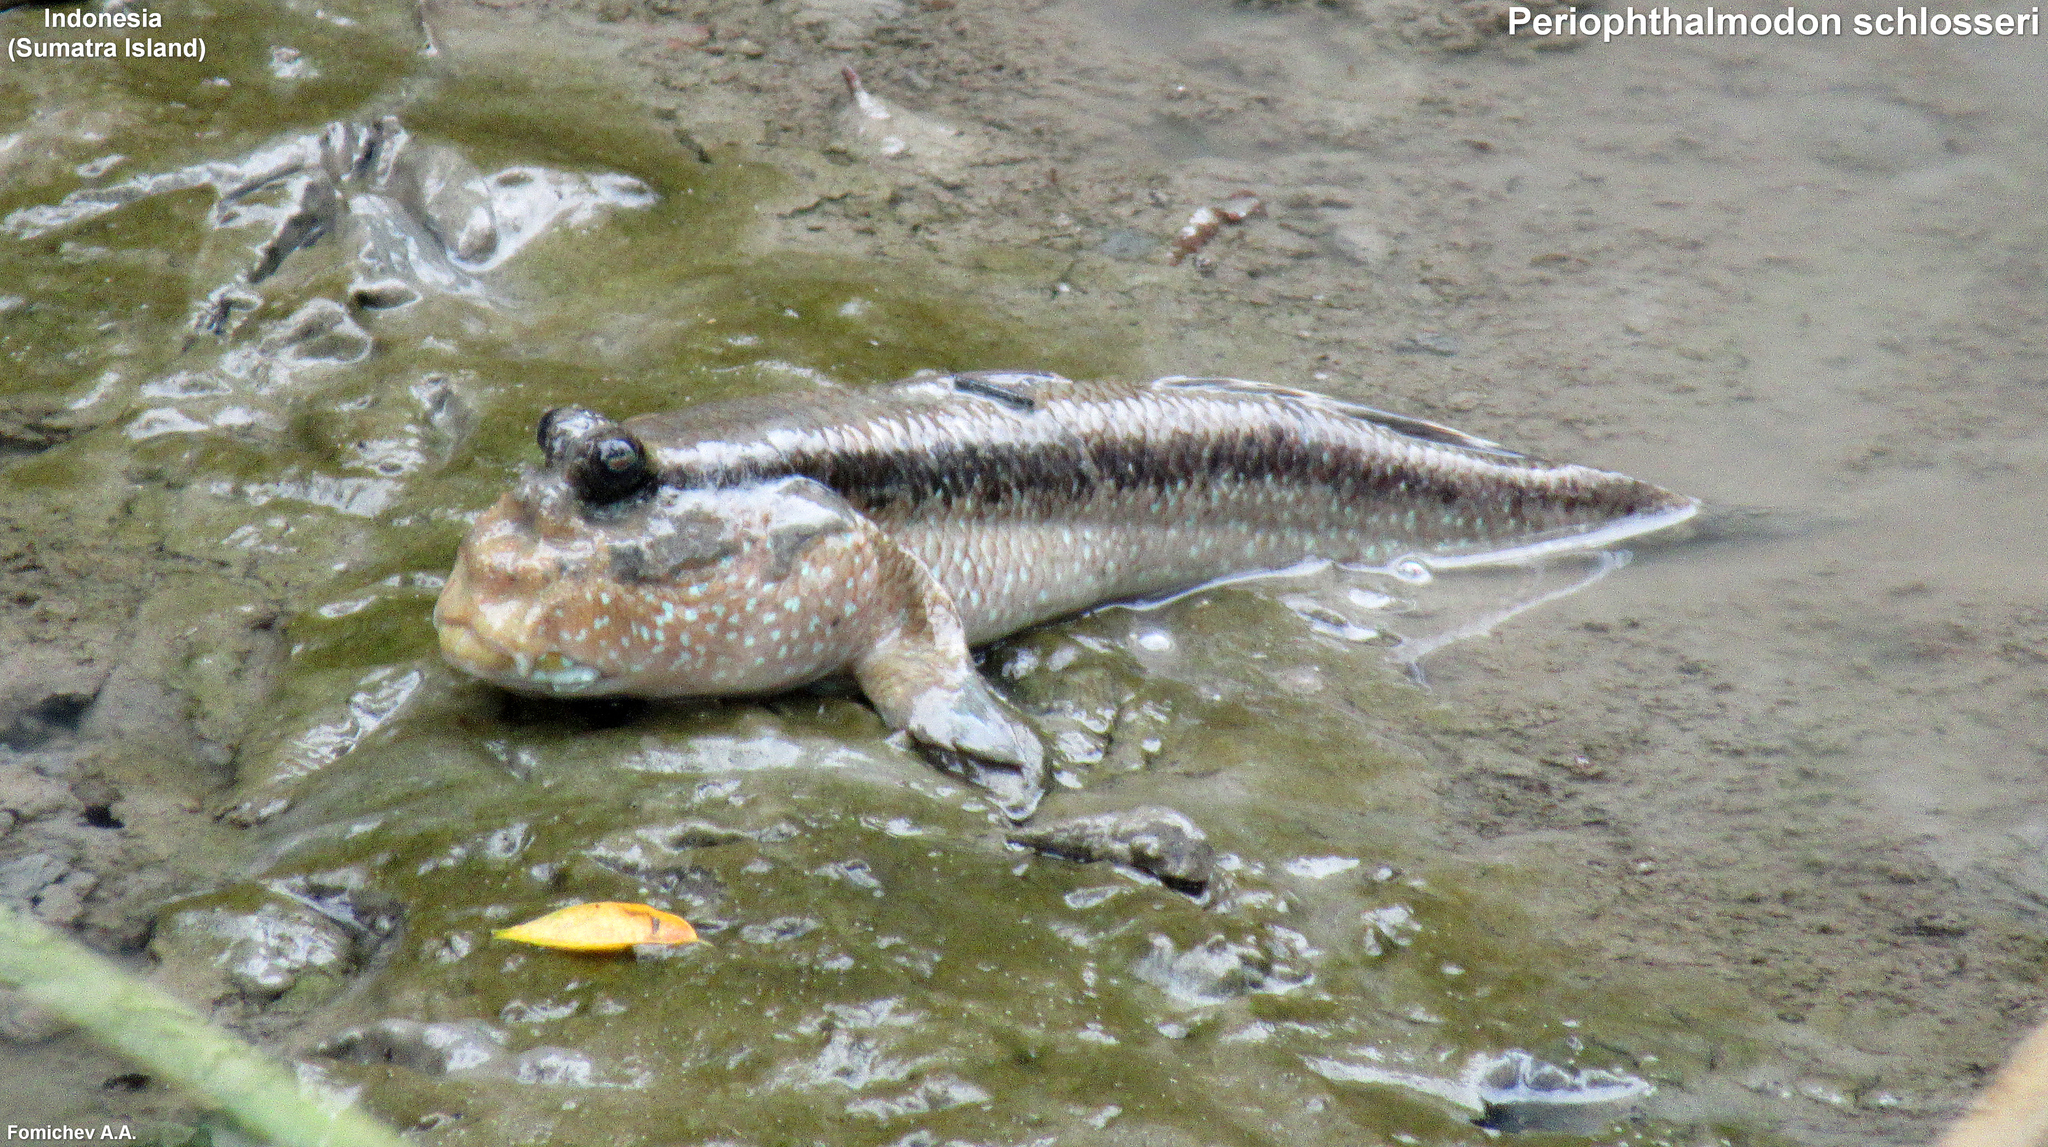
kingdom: Animalia
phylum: Chordata
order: Perciformes
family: Gobiidae
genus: Periophthalmodon
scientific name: Periophthalmodon schlosseri
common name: Giant mudskipper
